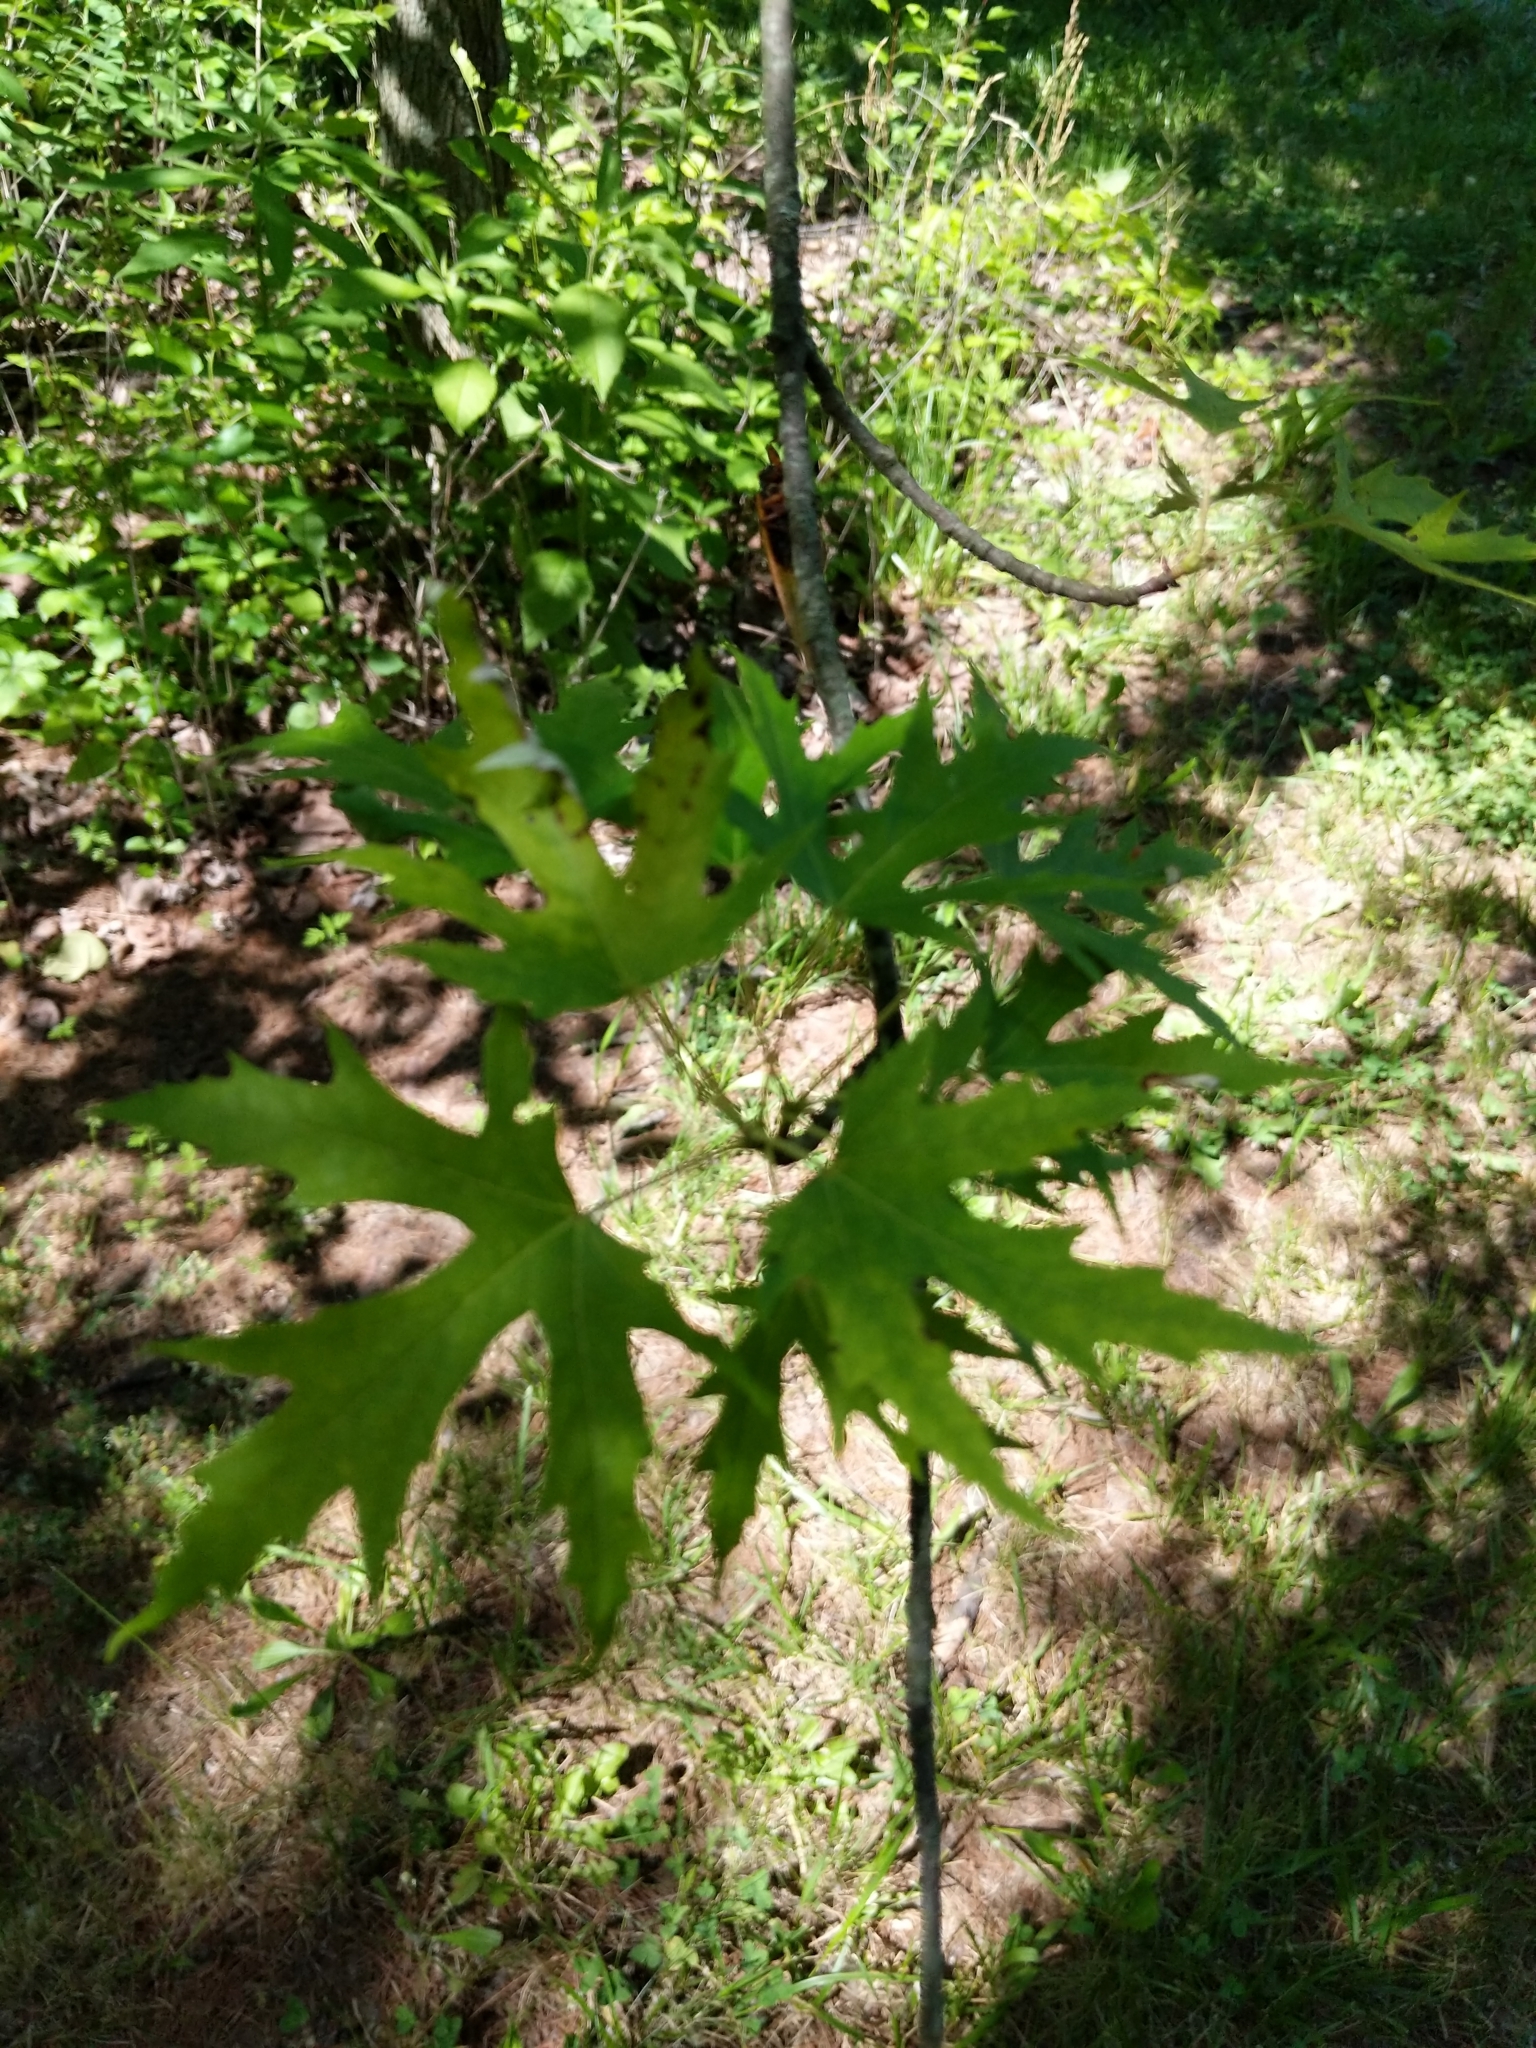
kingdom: Plantae
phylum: Tracheophyta
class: Magnoliopsida
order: Sapindales
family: Sapindaceae
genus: Acer
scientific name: Acer saccharinum
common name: Silver maple
